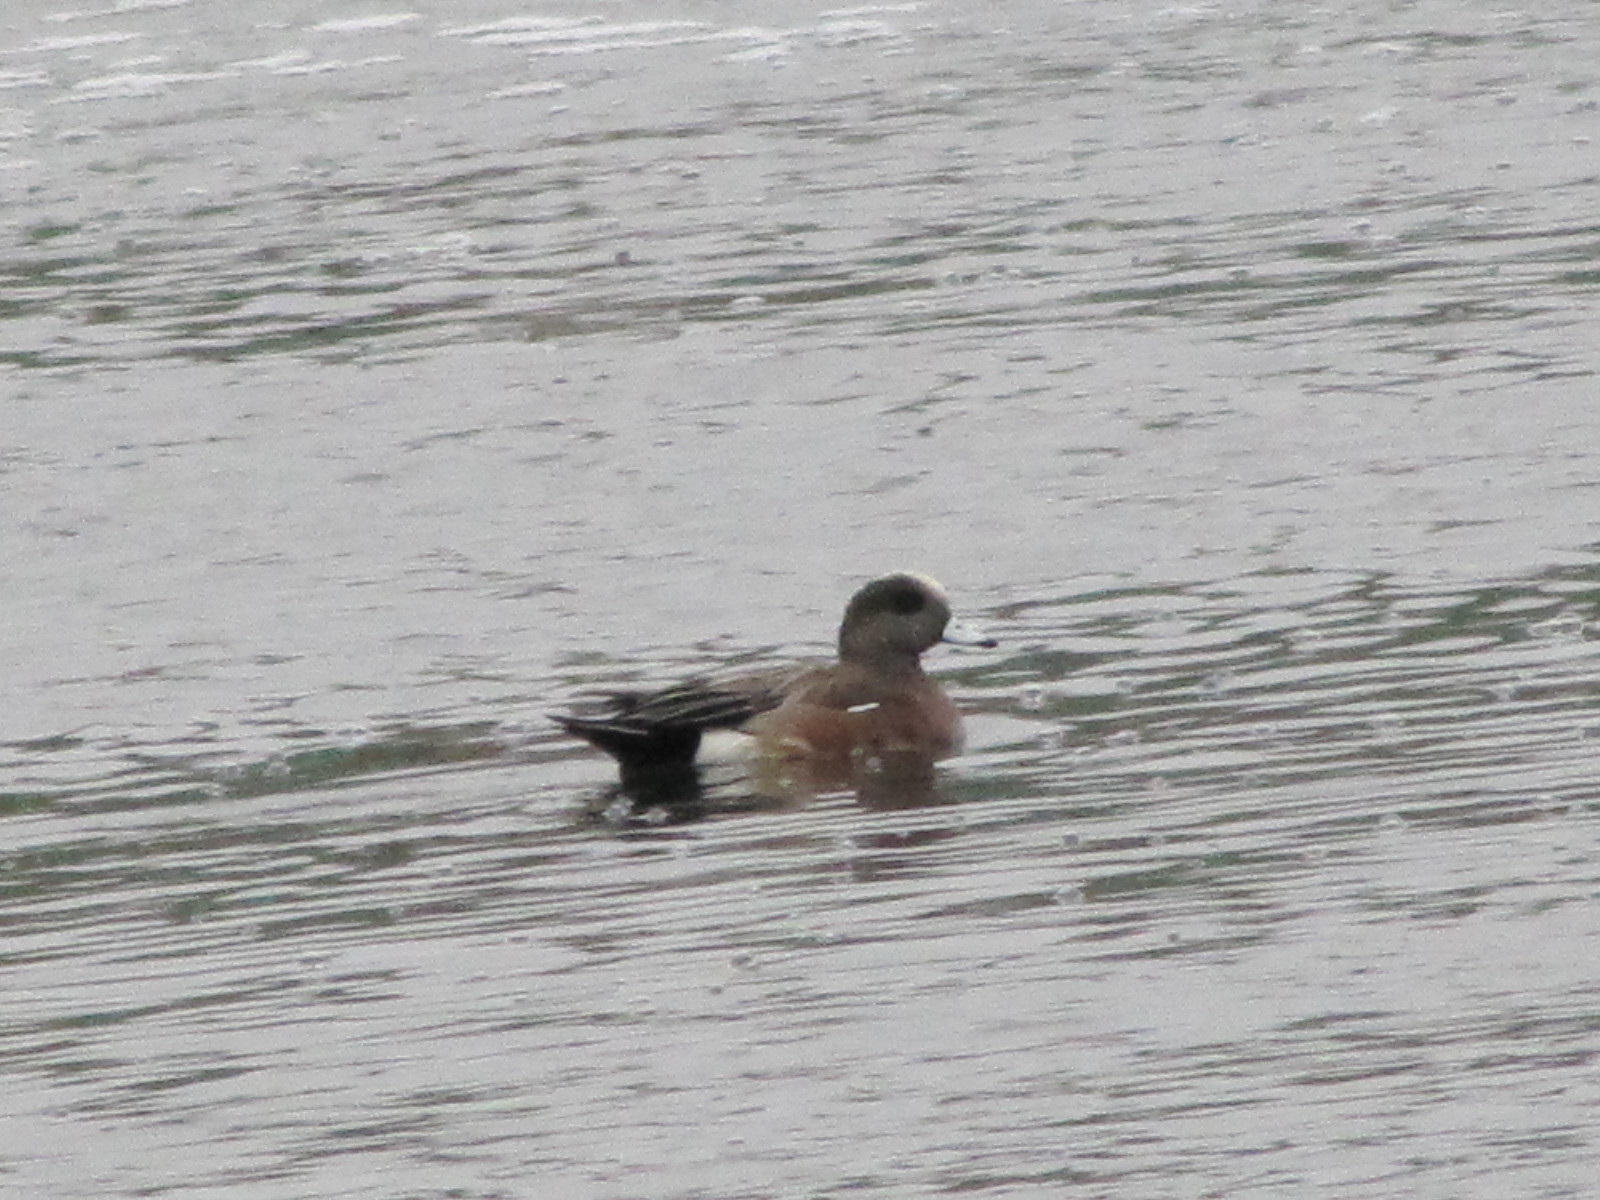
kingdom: Animalia
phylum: Chordata
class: Aves
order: Anseriformes
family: Anatidae
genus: Mareca
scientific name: Mareca americana
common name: American wigeon
